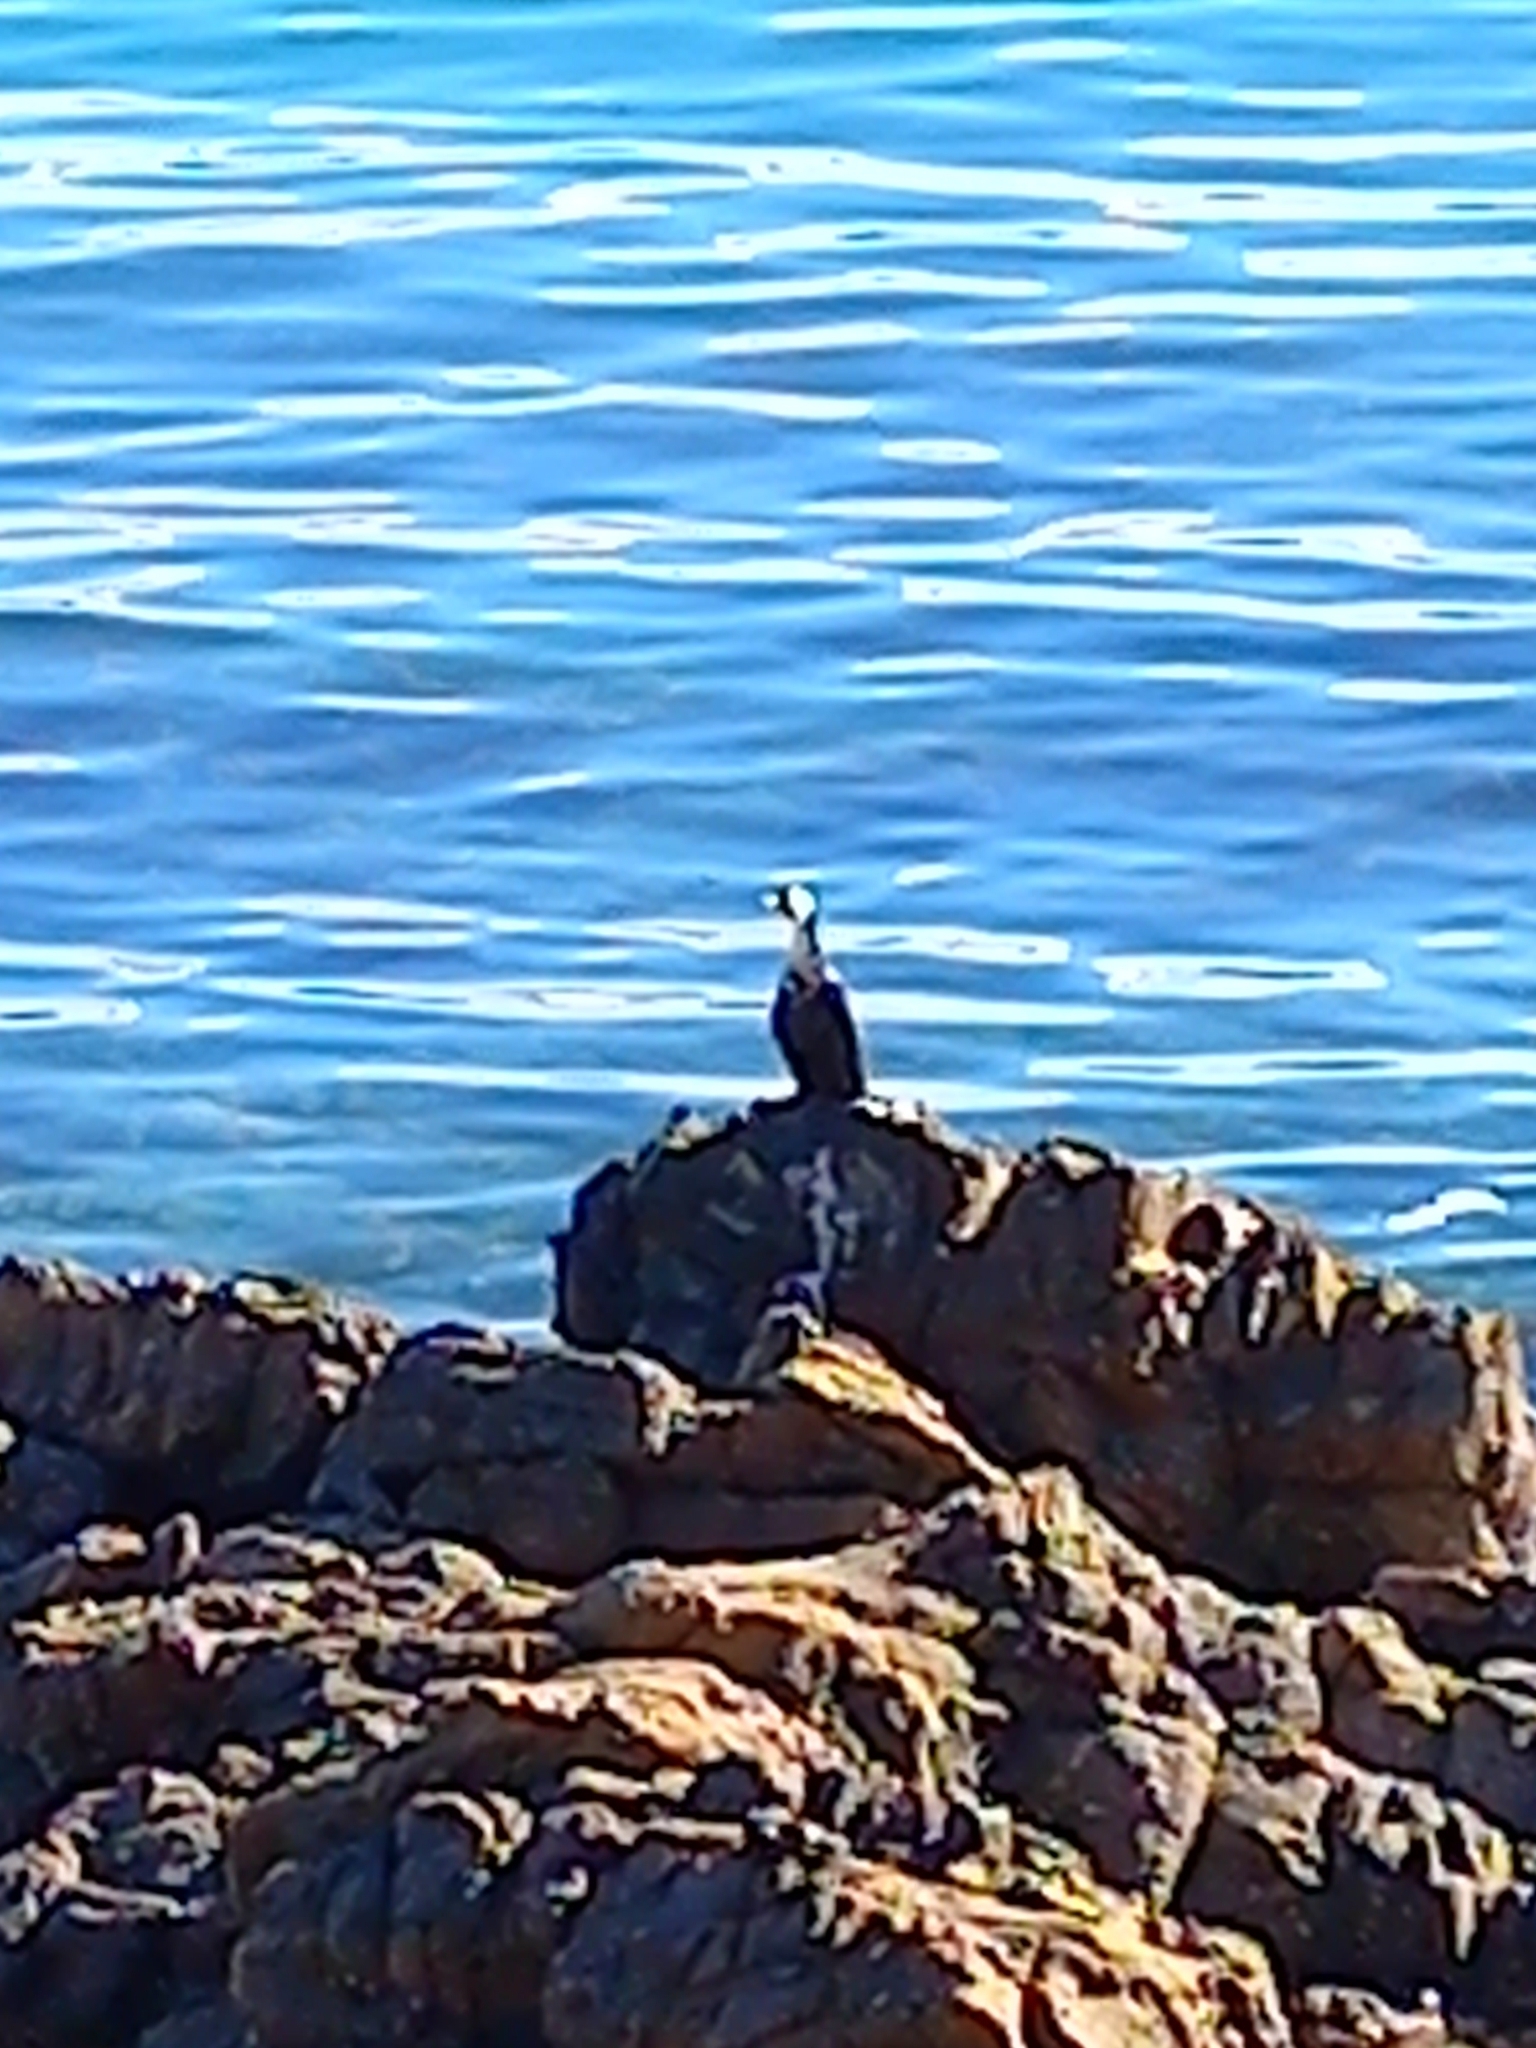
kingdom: Animalia
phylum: Chordata
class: Aves
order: Suliformes
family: Phalacrocoracidae
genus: Microcarbo
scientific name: Microcarbo melanoleucos
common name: Little pied cormorant
